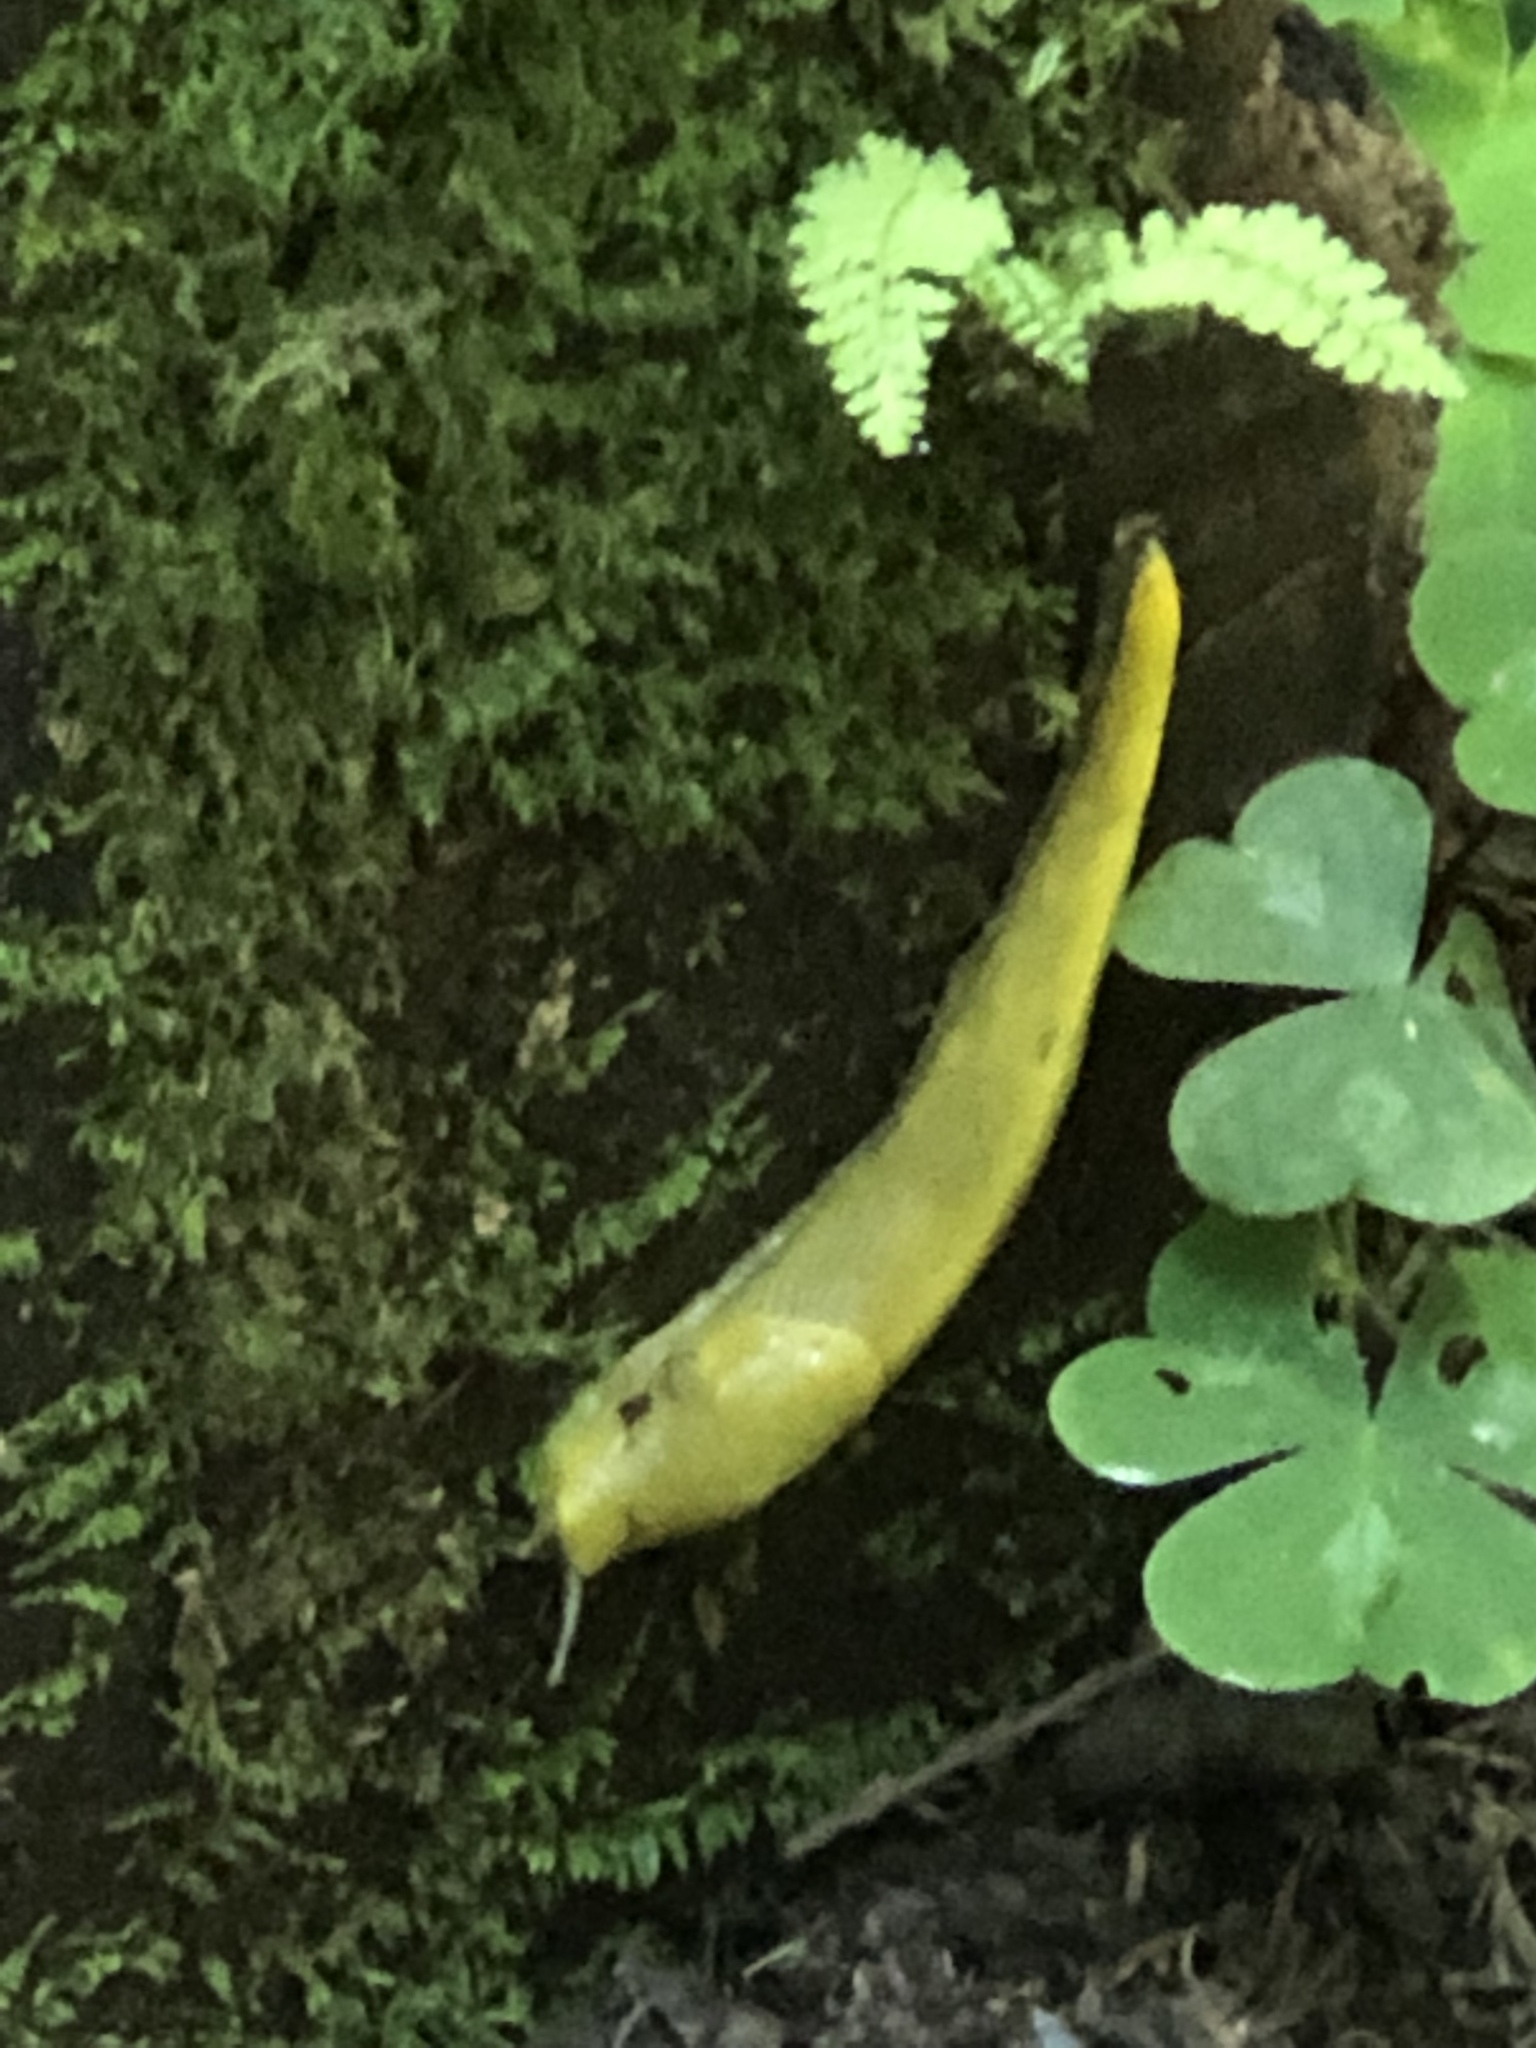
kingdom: Animalia
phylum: Mollusca
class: Gastropoda
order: Stylommatophora
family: Ariolimacidae
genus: Ariolimax
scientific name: Ariolimax columbianus
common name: Pacific banana slug
